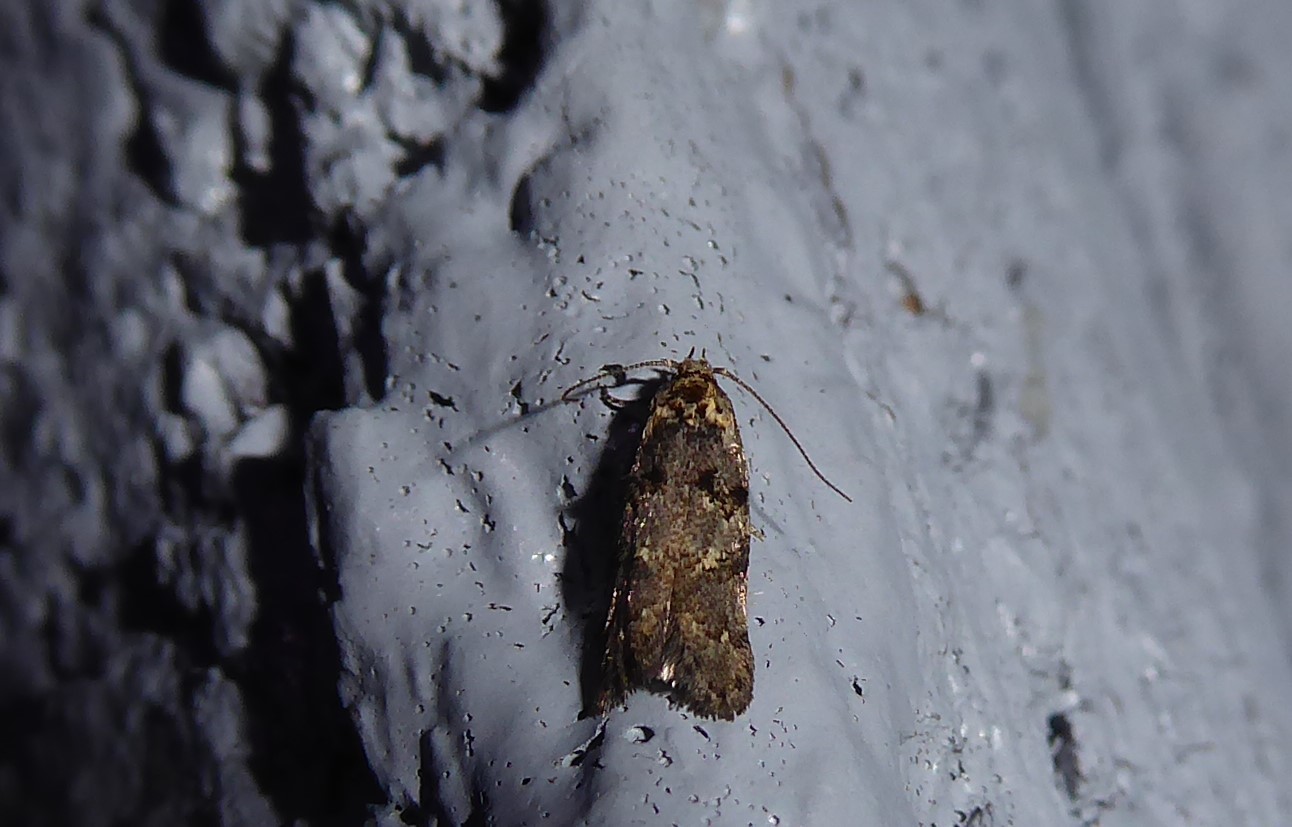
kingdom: Animalia
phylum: Arthropoda
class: Insecta
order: Lepidoptera
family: Oecophoridae
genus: Trachypepla
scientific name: Trachypepla anastrella
